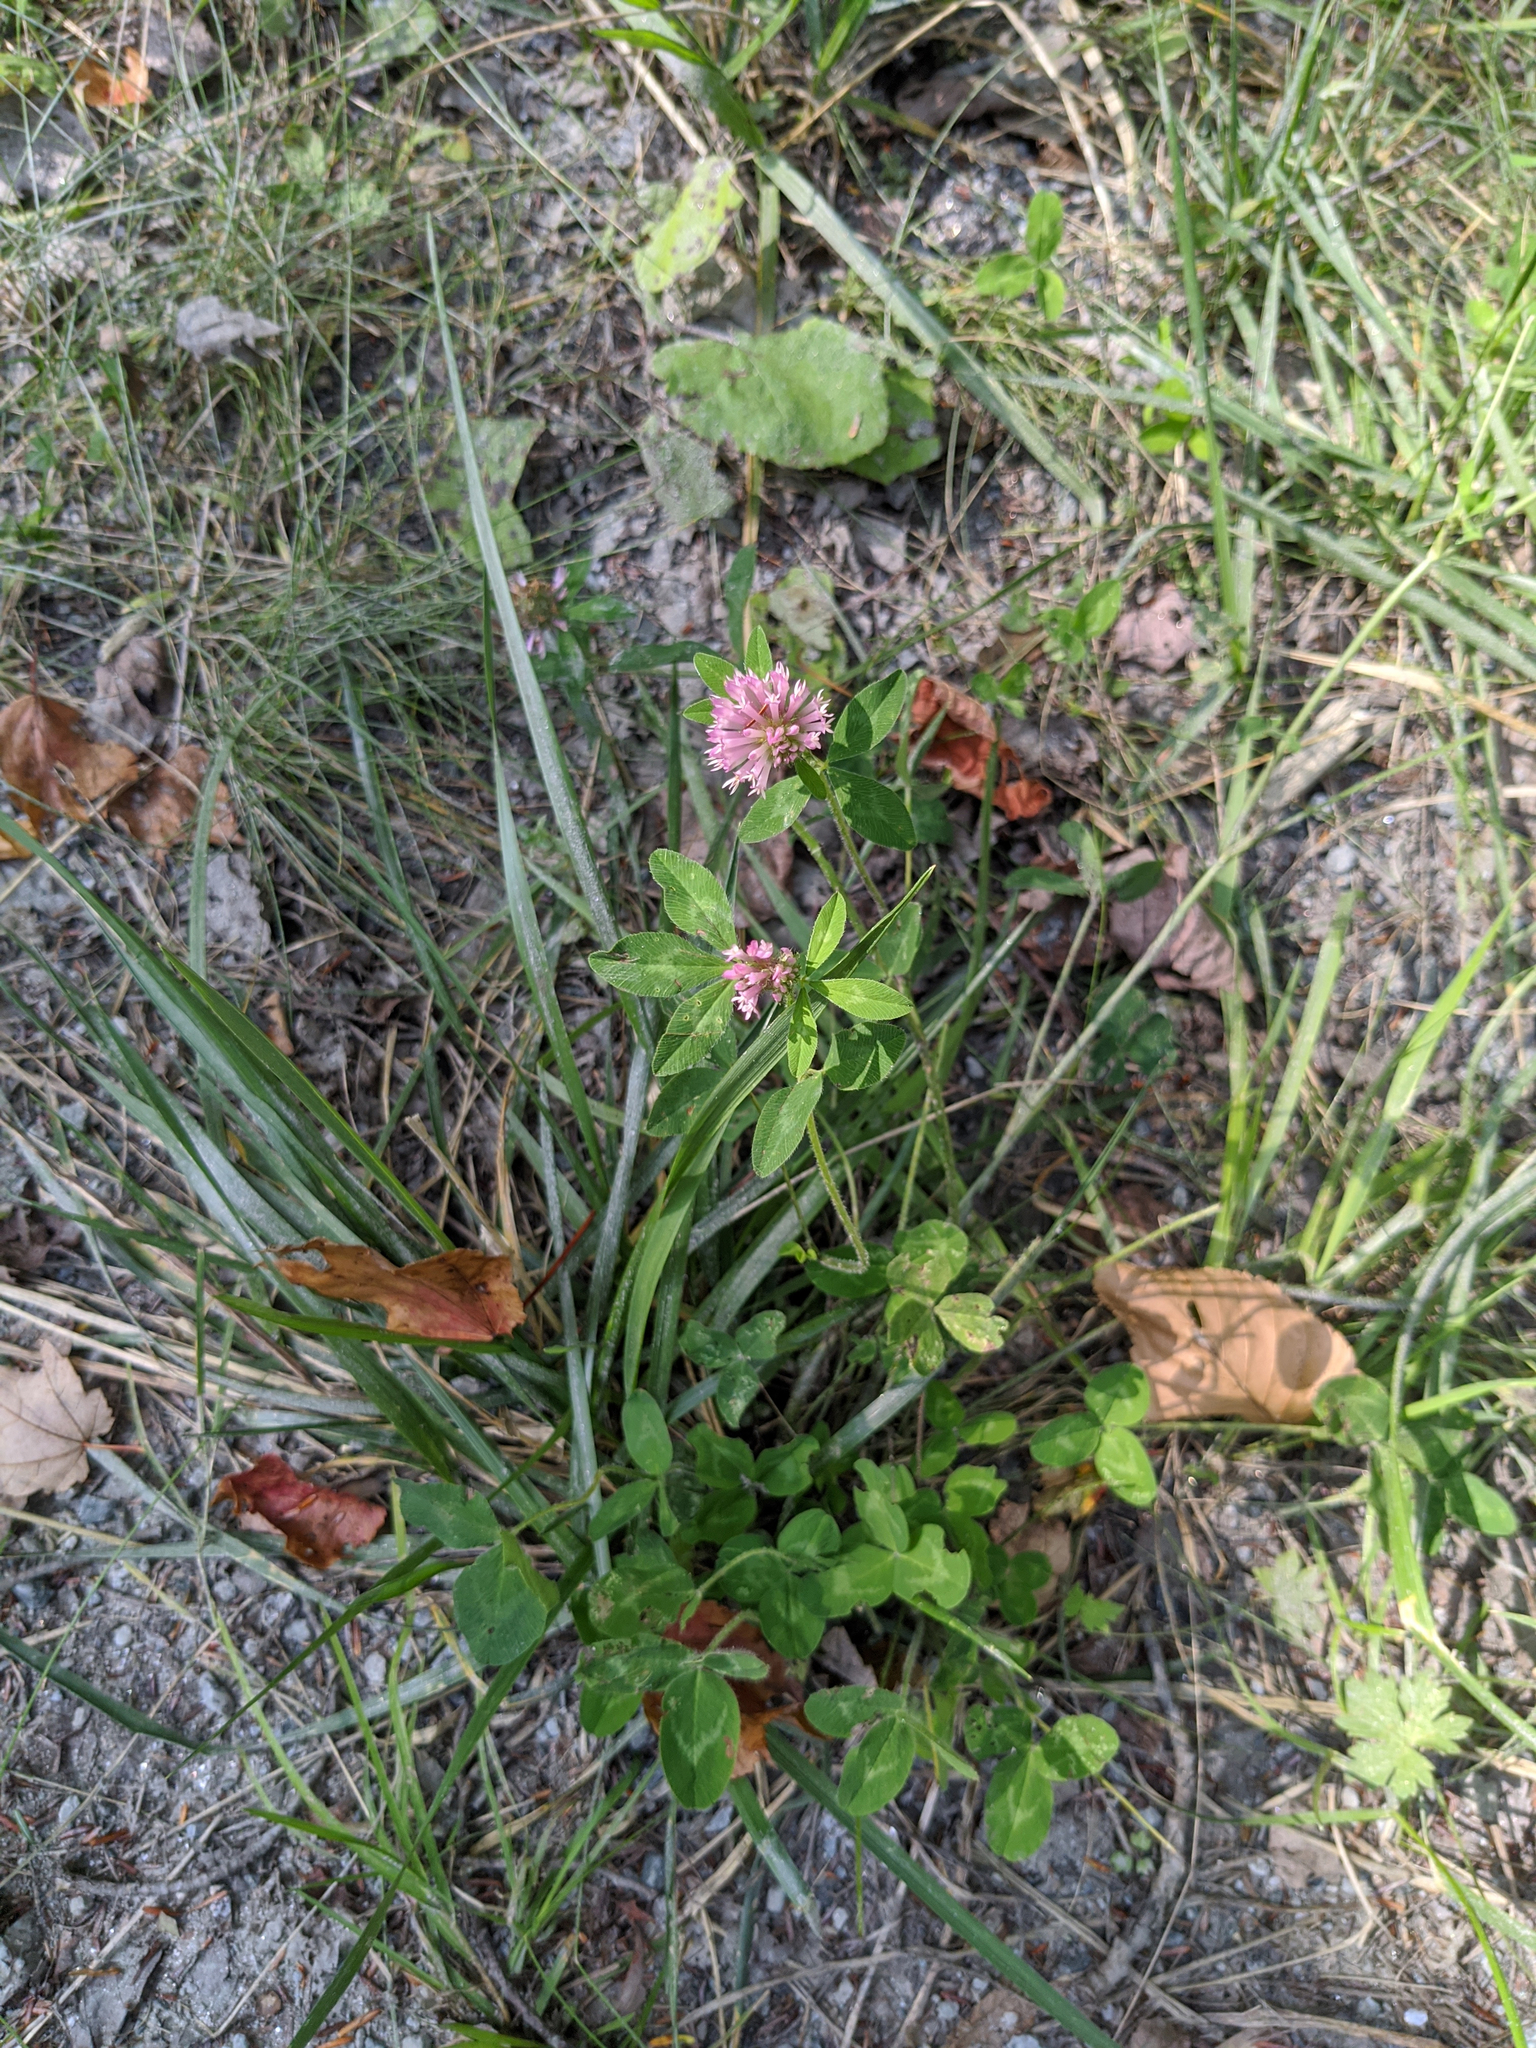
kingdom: Plantae
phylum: Tracheophyta
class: Magnoliopsida
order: Fabales
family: Fabaceae
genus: Trifolium
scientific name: Trifolium pratense
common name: Red clover
